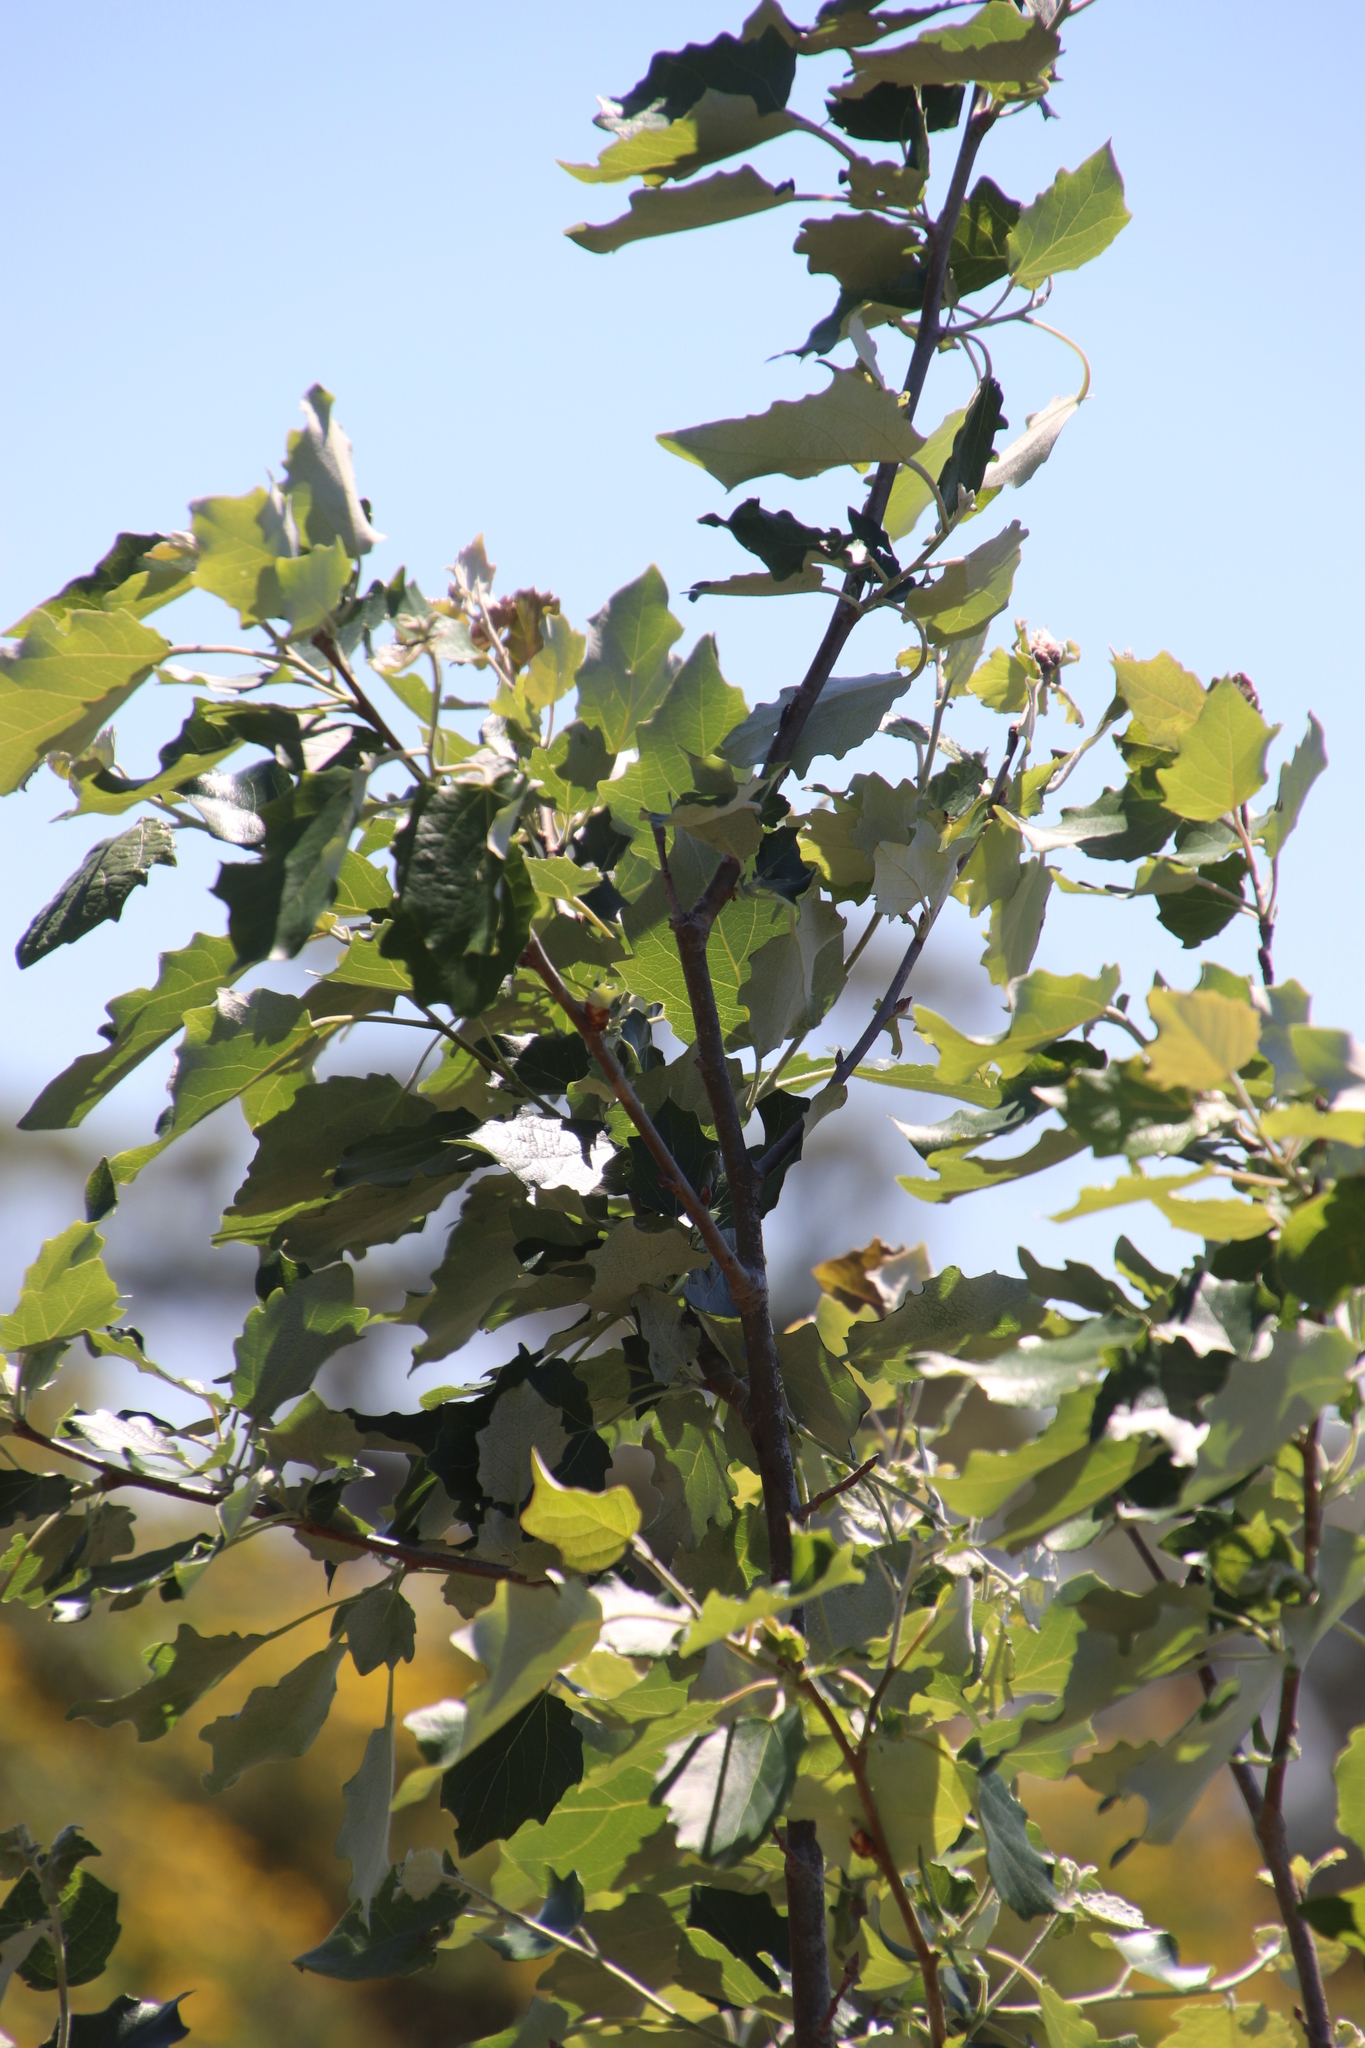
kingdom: Plantae
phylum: Tracheophyta
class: Magnoliopsida
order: Malpighiales
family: Salicaceae
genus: Populus
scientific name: Populus alba
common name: White poplar
